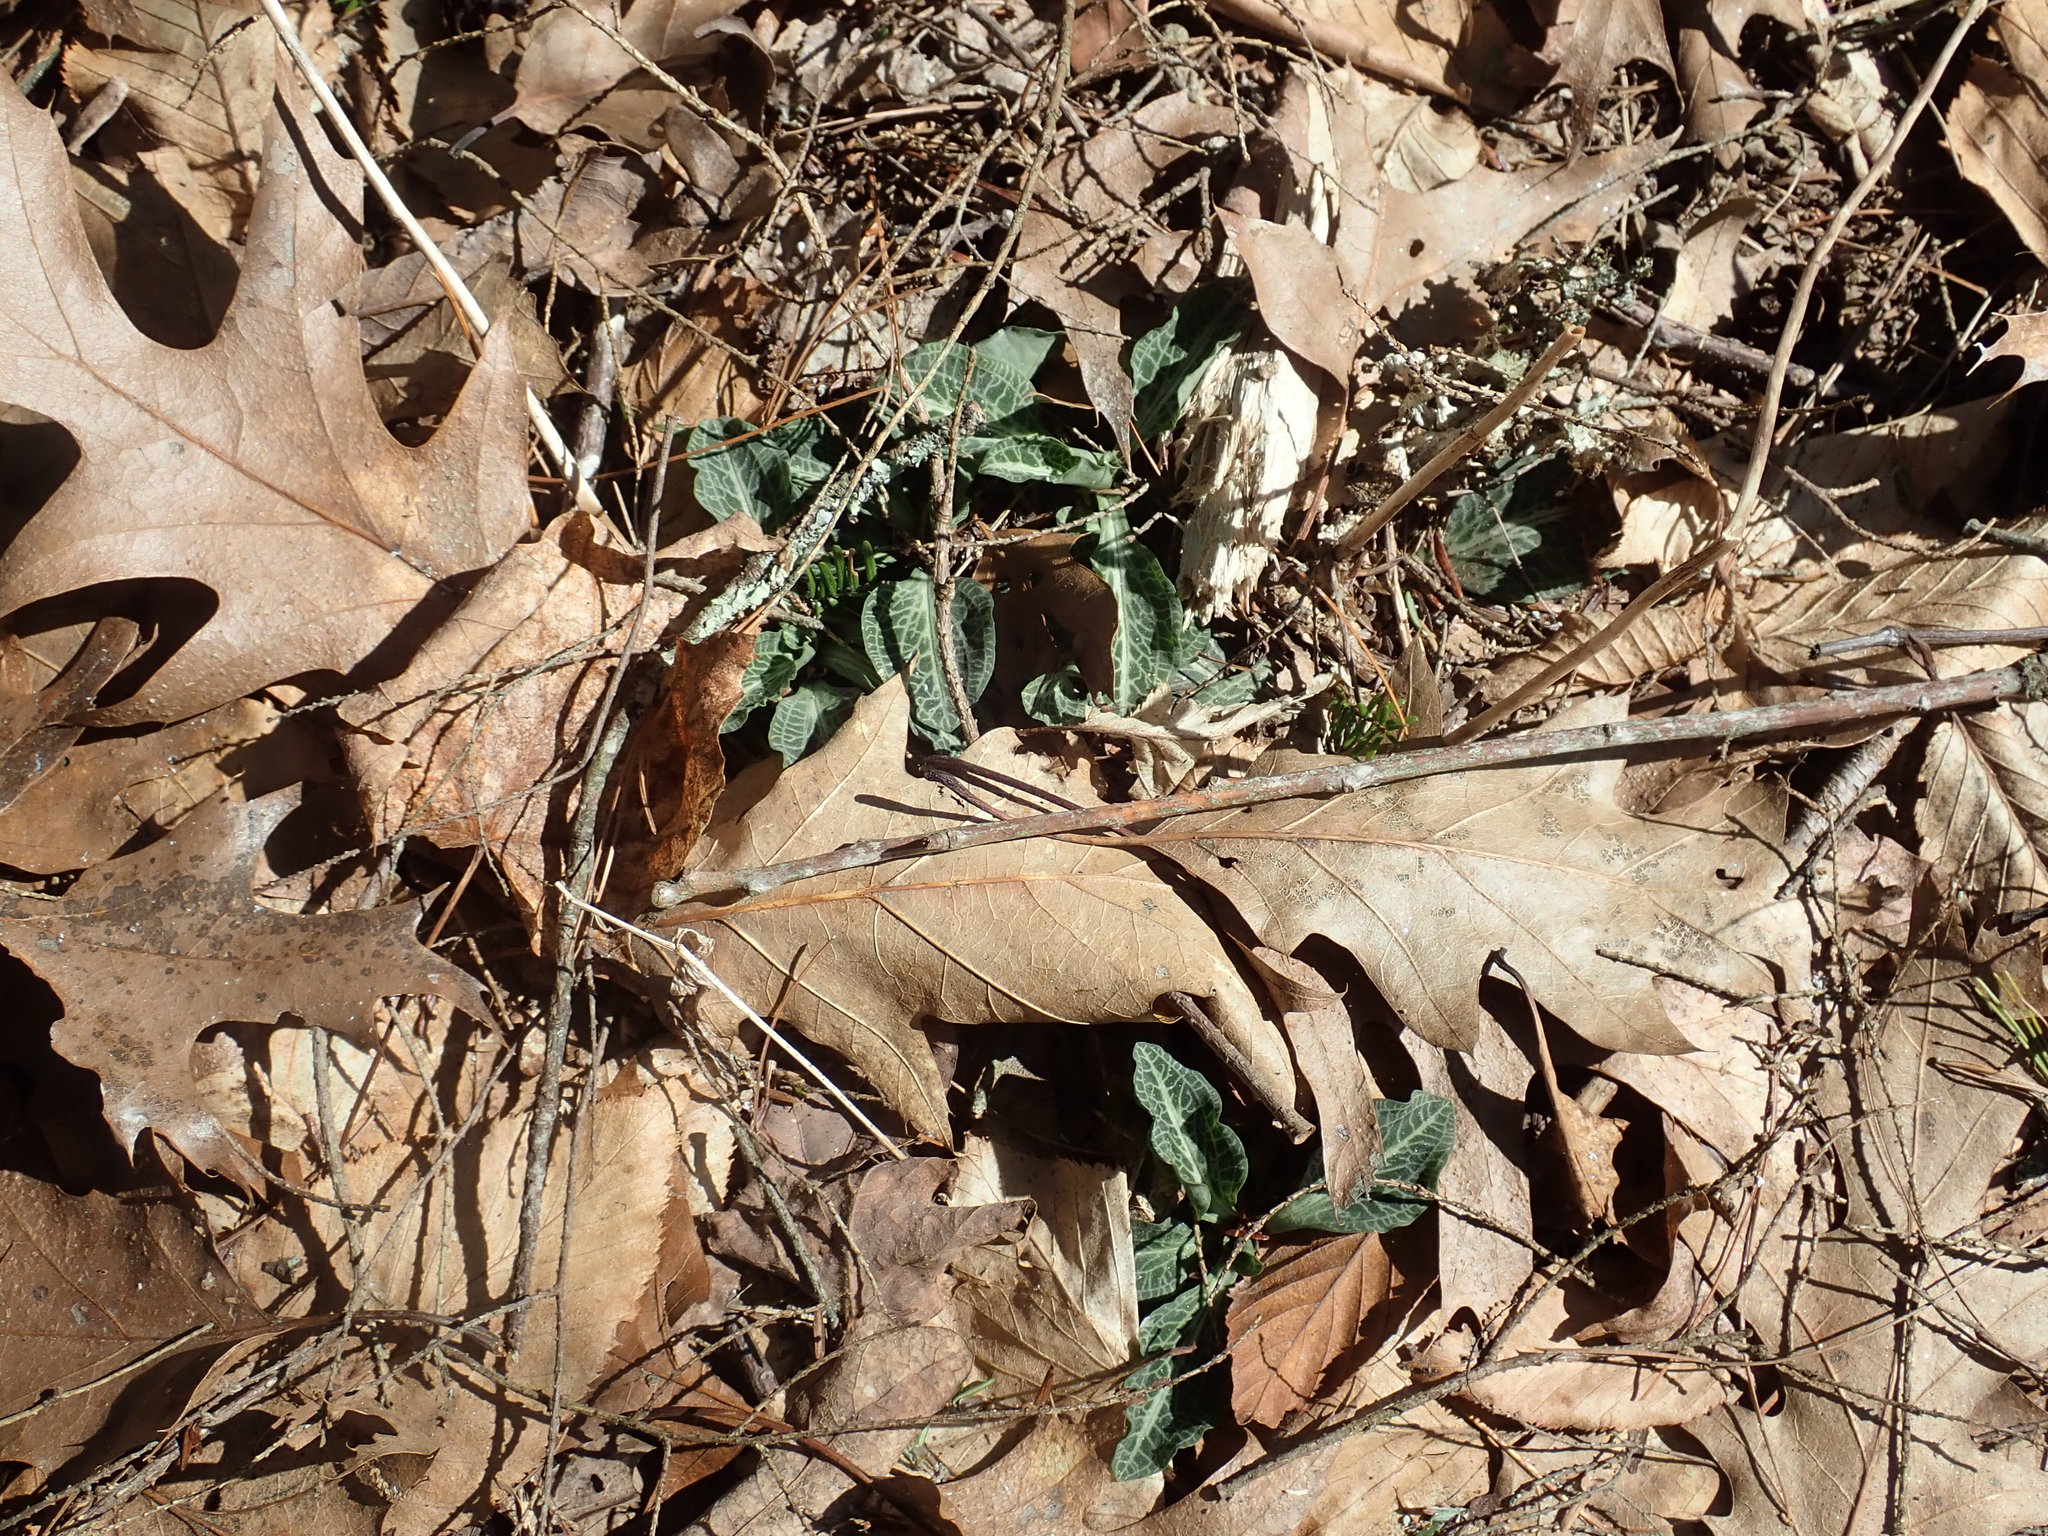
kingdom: Plantae
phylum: Tracheophyta
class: Liliopsida
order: Asparagales
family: Orchidaceae
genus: Goodyera
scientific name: Goodyera pubescens
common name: Downy rattlesnake-plantain
